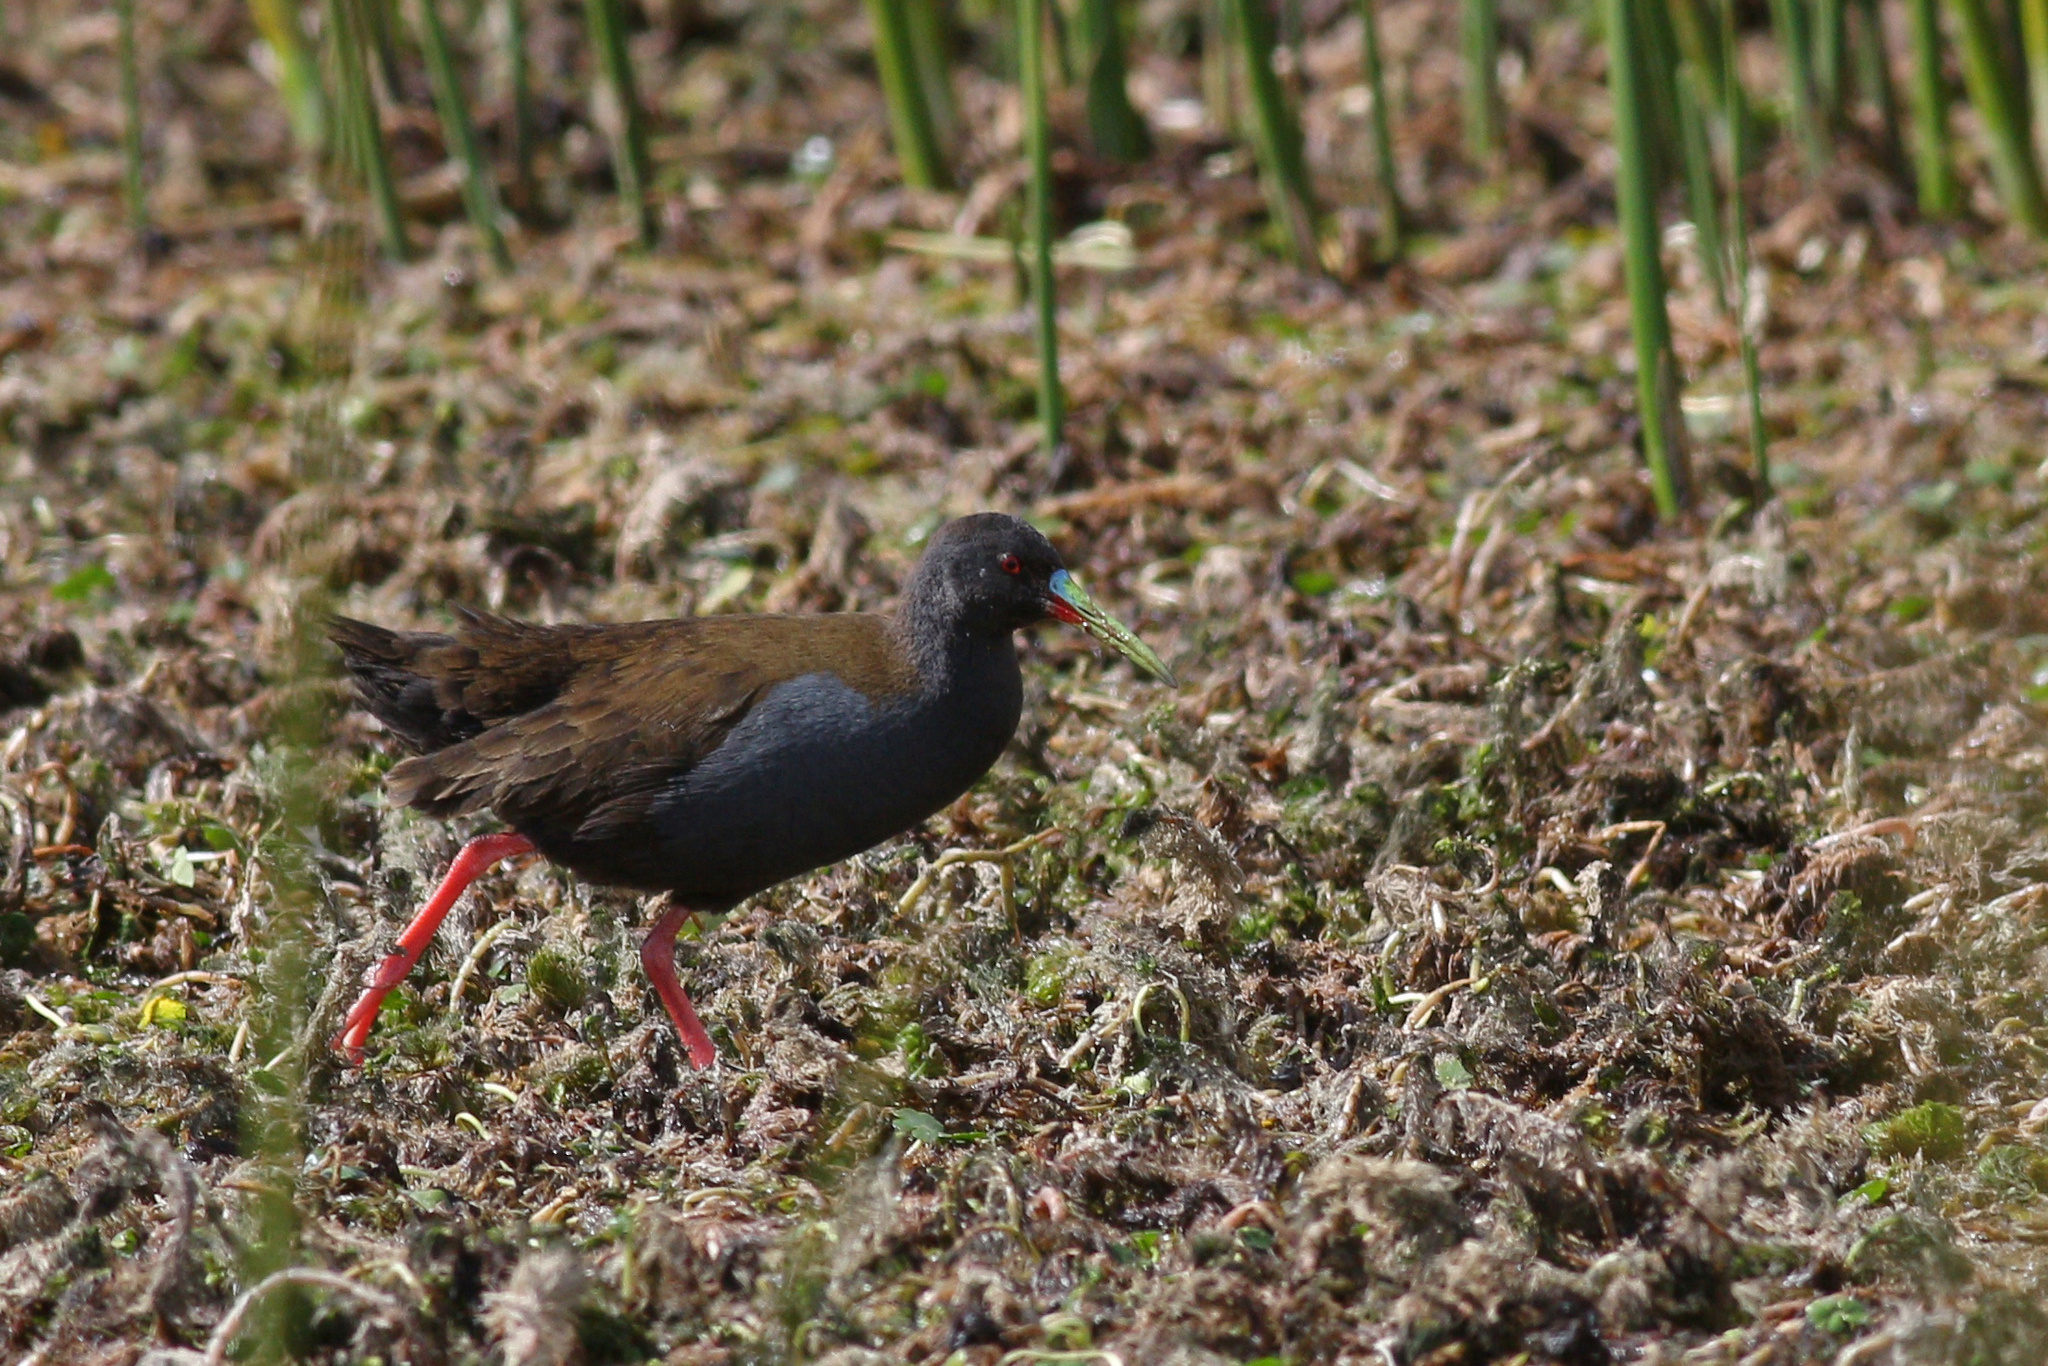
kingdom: Animalia
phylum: Chordata
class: Aves
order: Gruiformes
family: Rallidae
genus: Pardirallus
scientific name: Pardirallus sanguinolentus
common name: Plumbeous rail
